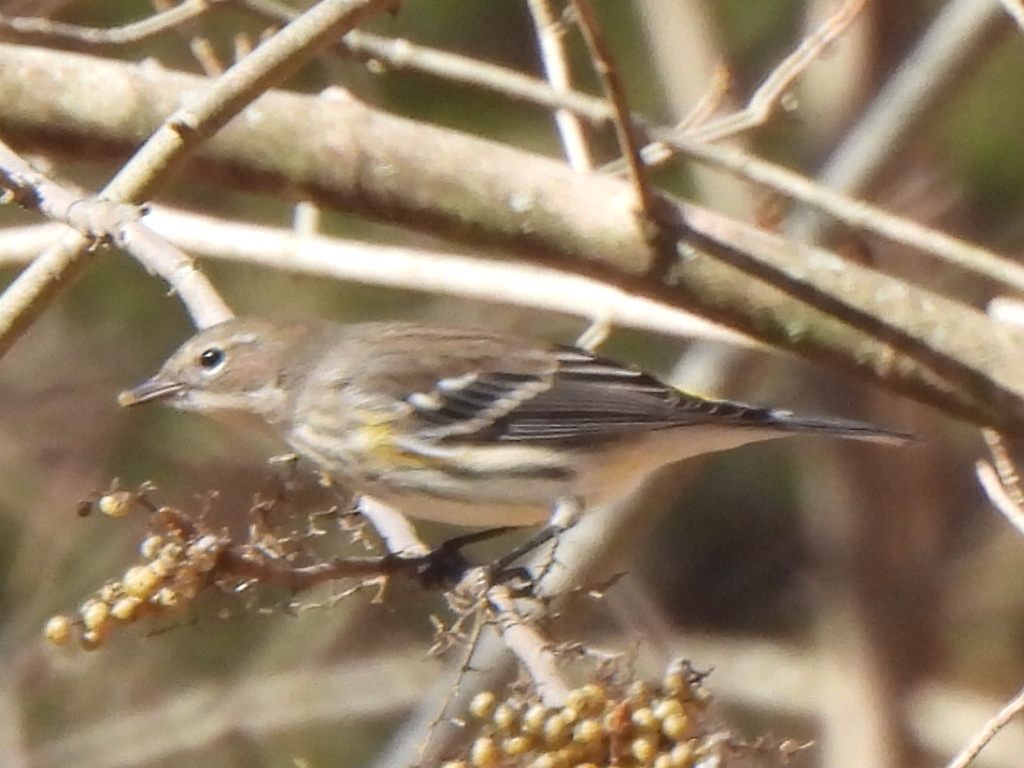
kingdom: Animalia
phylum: Chordata
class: Aves
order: Passeriformes
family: Parulidae
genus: Setophaga
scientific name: Setophaga coronata
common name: Myrtle warbler
